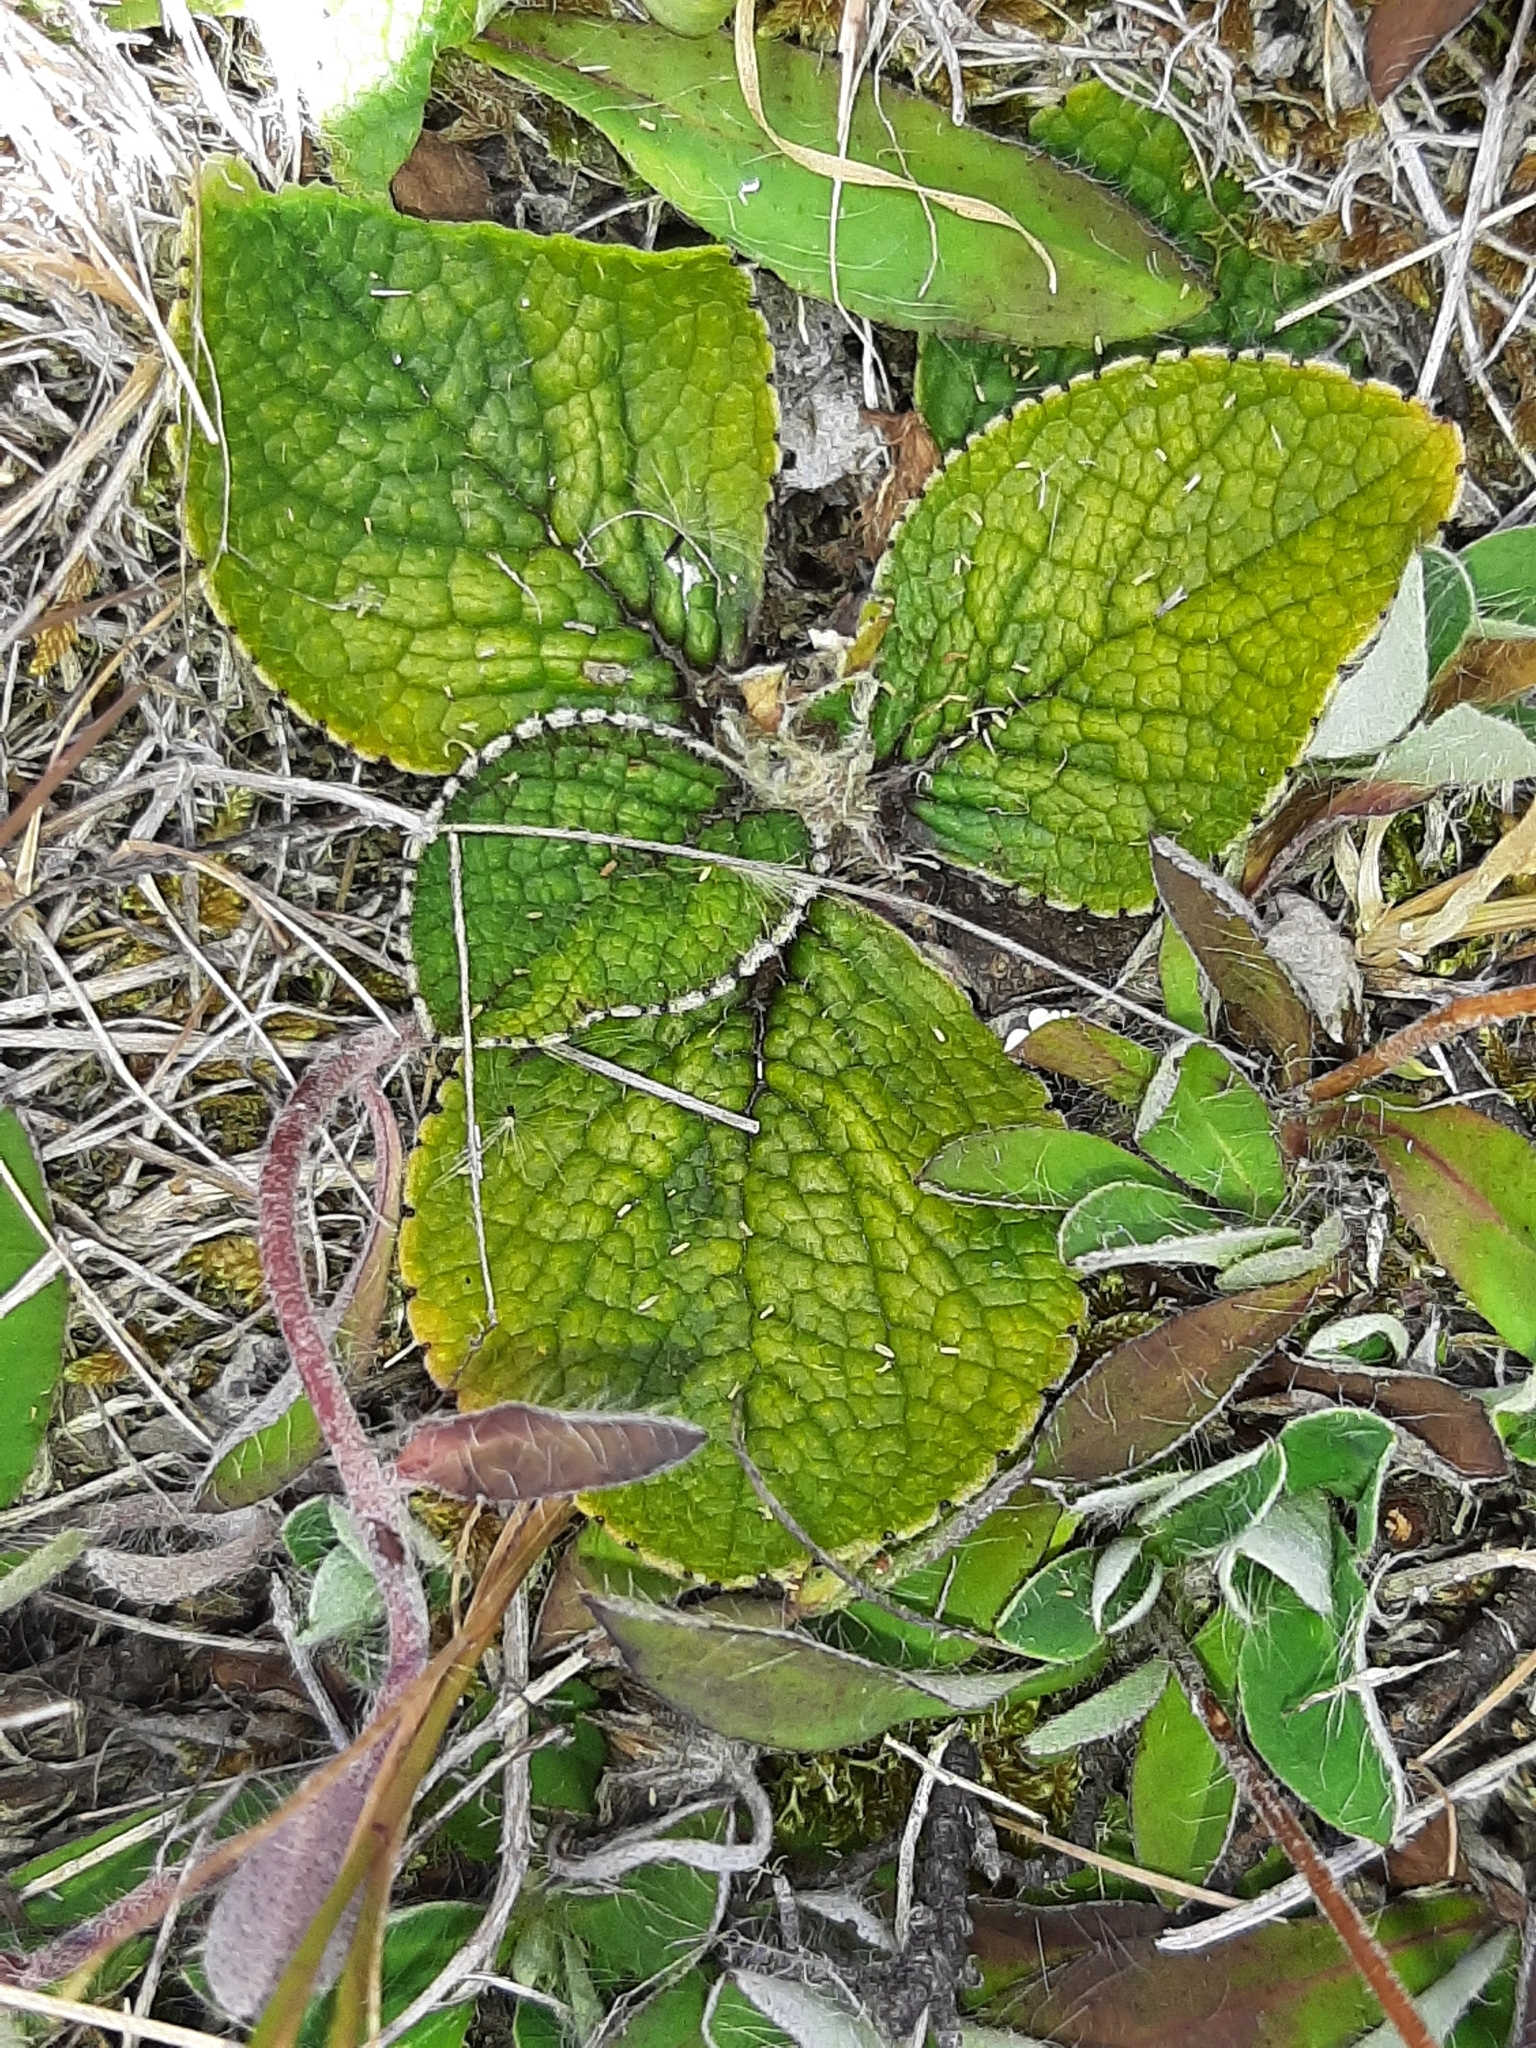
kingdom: Plantae
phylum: Tracheophyta
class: Magnoliopsida
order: Asterales
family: Asteraceae
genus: Brachyglottis
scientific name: Brachyglottis lagopus
